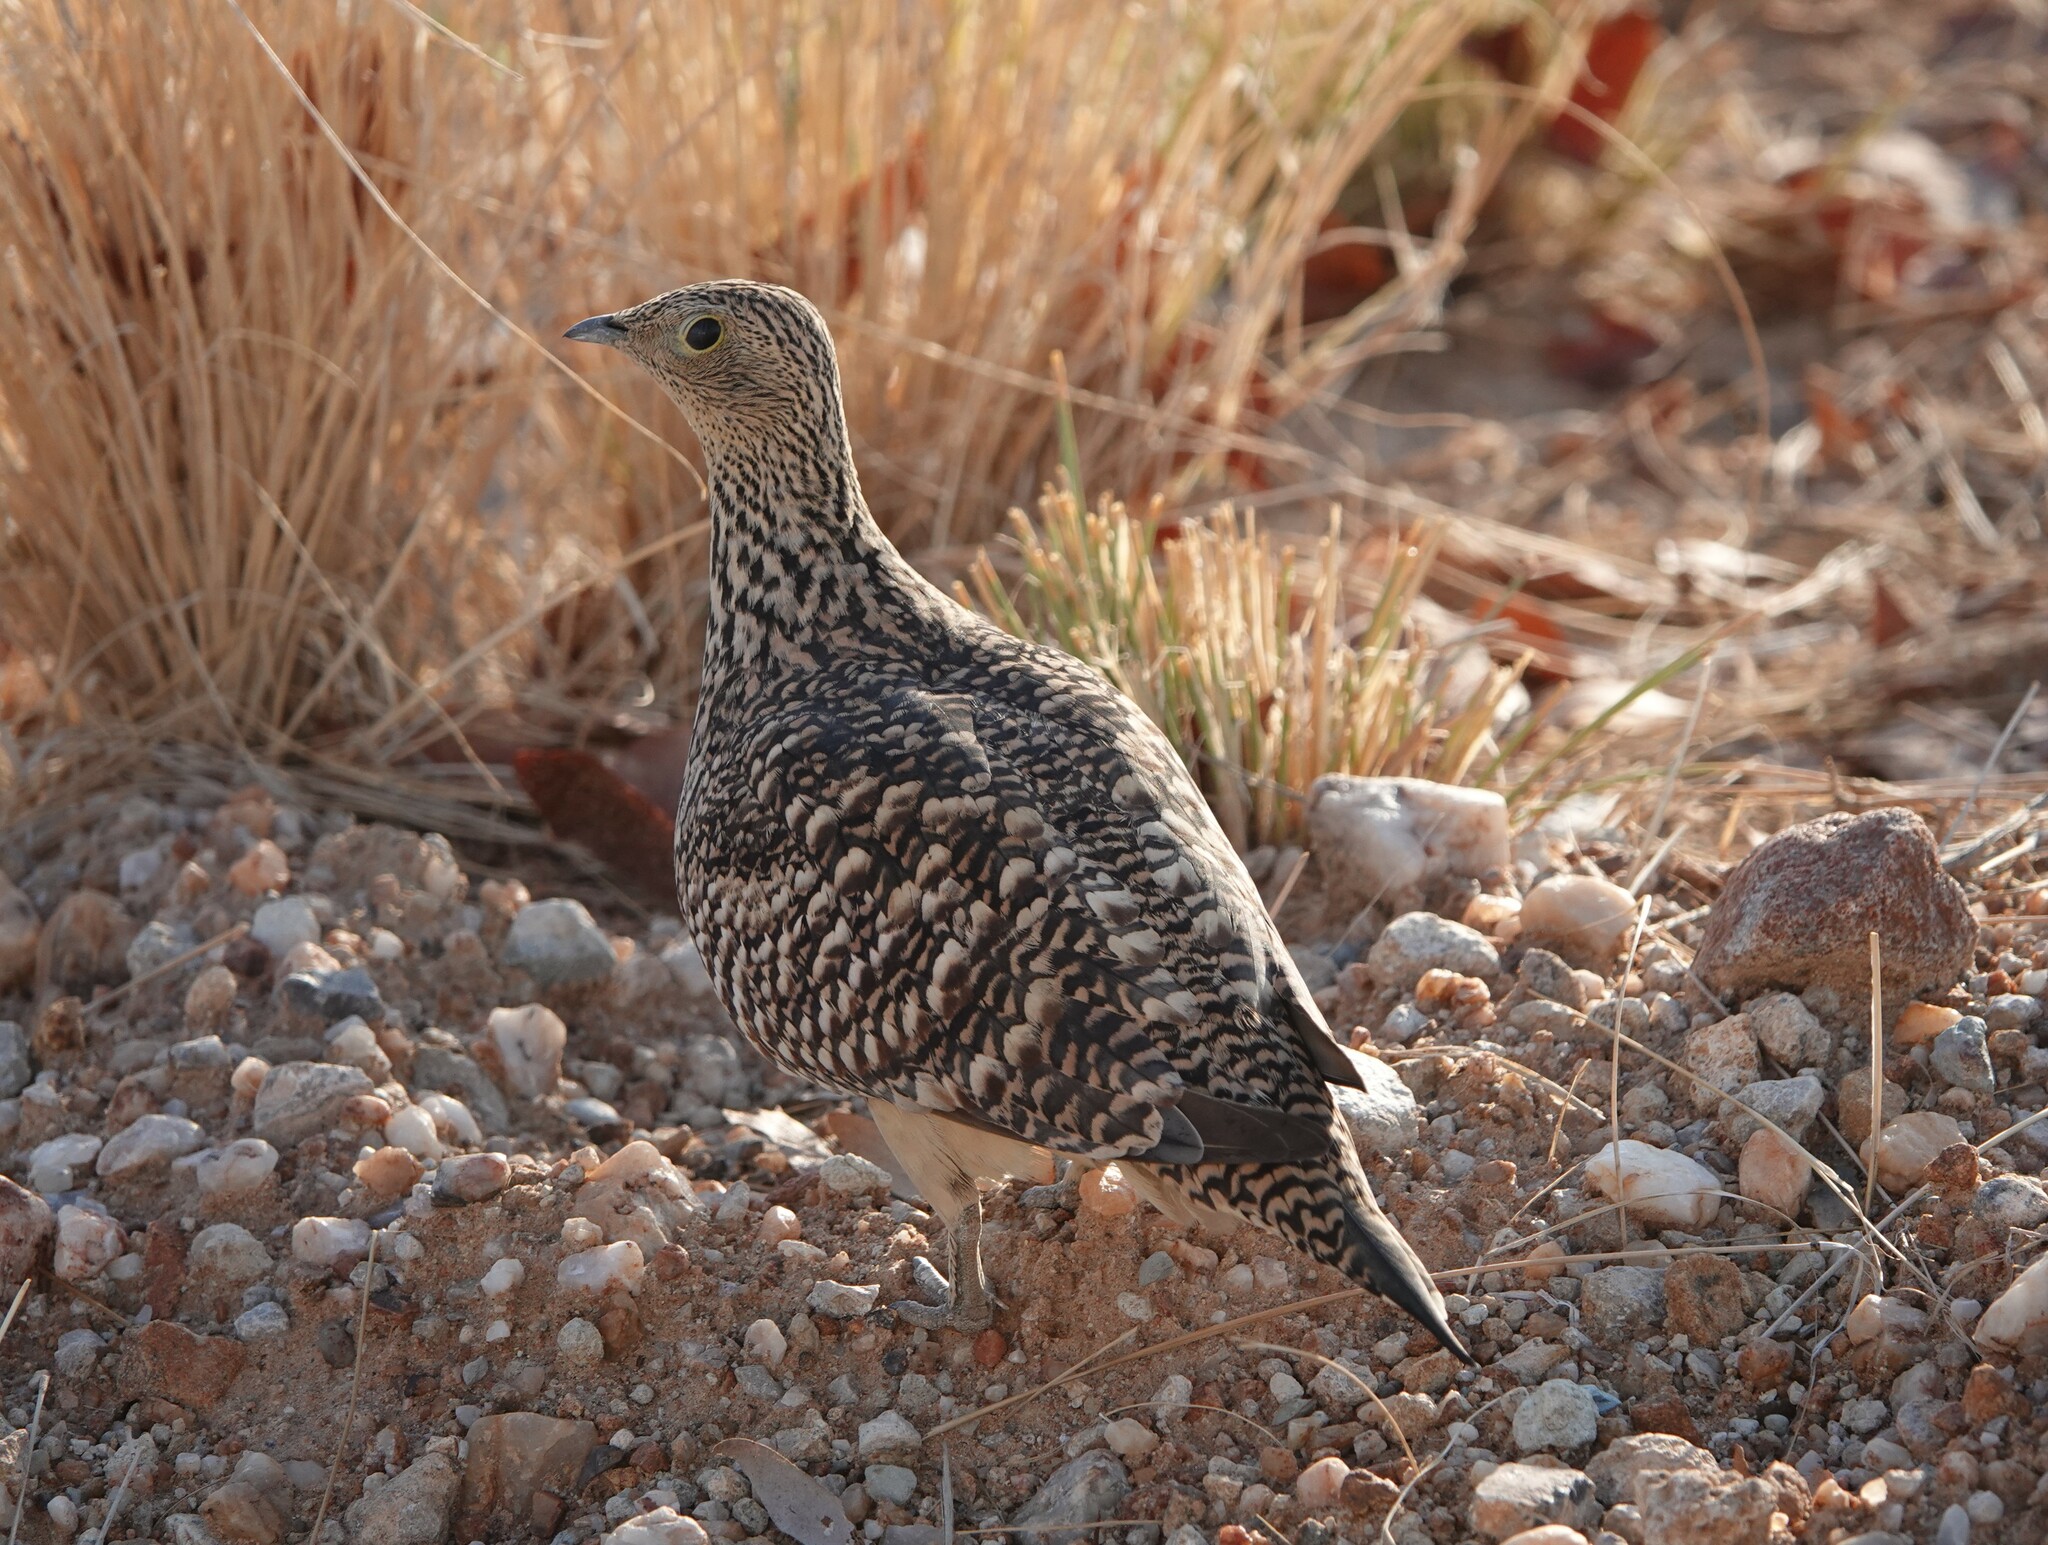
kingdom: Animalia
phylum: Chordata
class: Aves
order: Pteroclidiformes
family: Pteroclididae
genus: Pterocles
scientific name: Pterocles namaqua
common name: Namaqua sandgrouse
